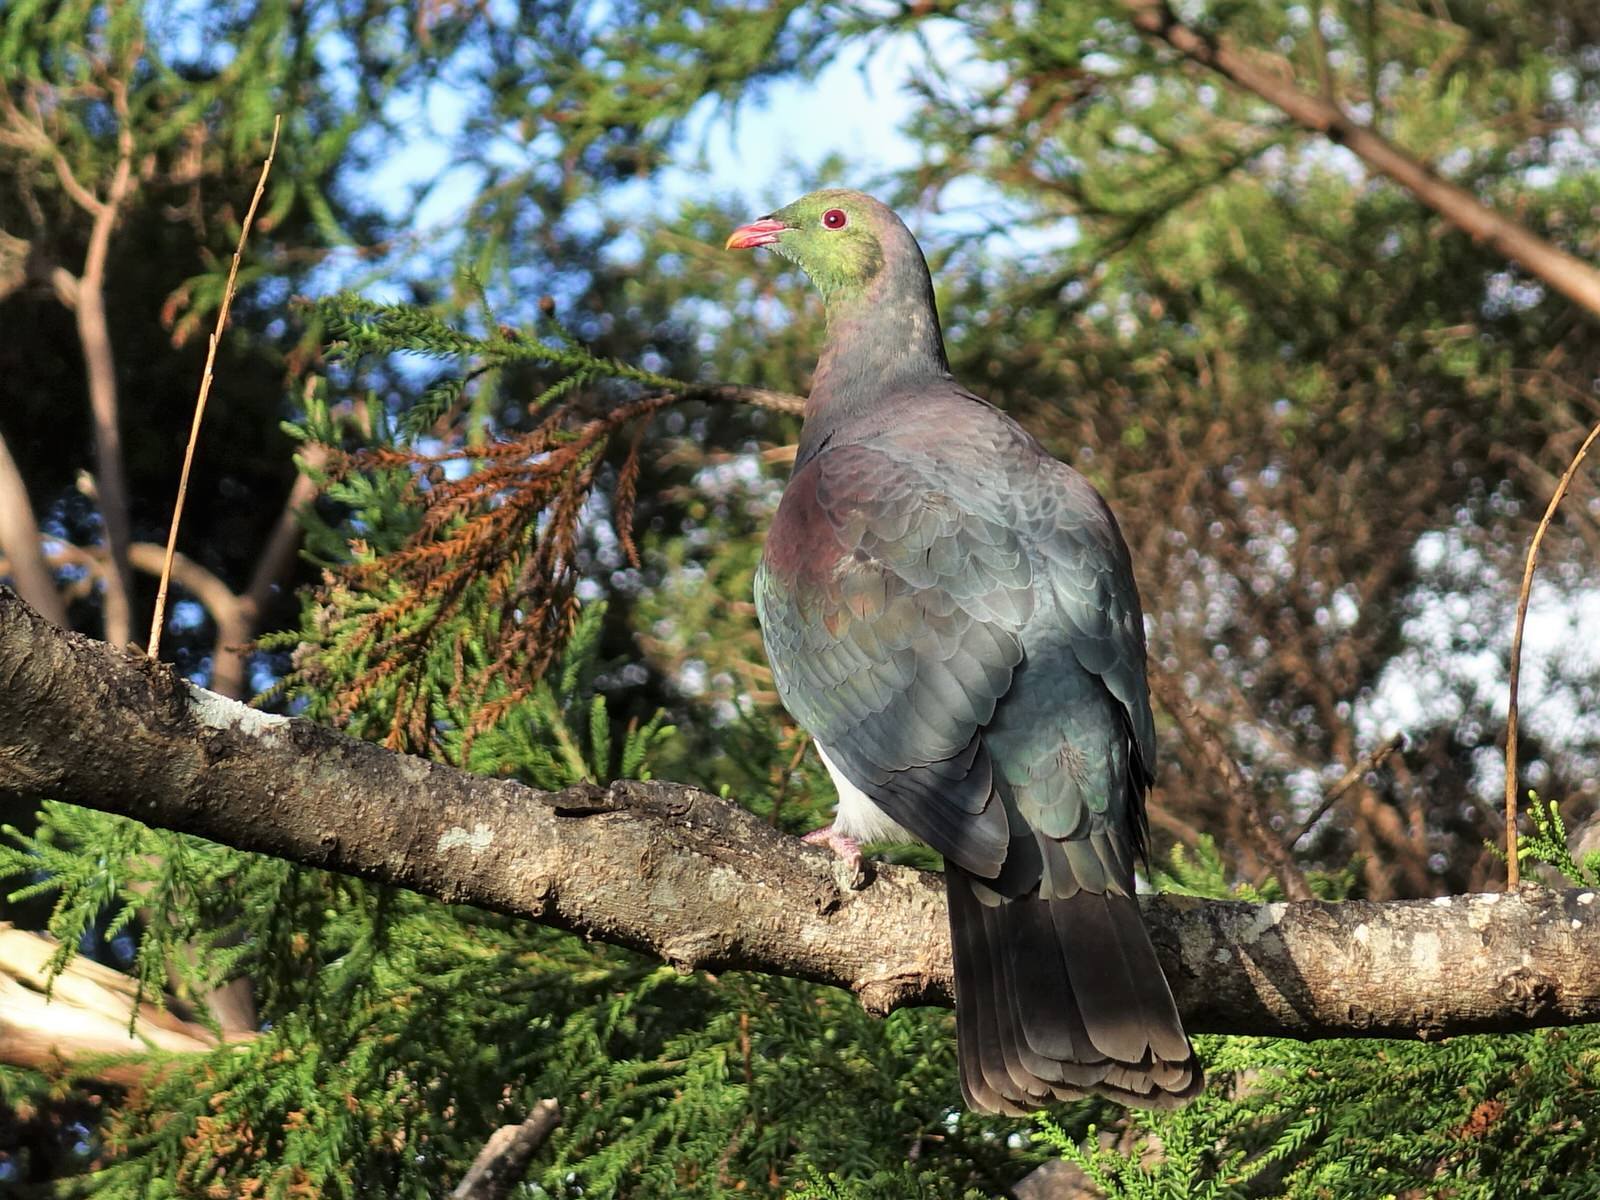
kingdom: Animalia
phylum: Chordata
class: Aves
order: Columbiformes
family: Columbidae
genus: Hemiphaga
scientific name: Hemiphaga novaeseelandiae
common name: New zealand pigeon
